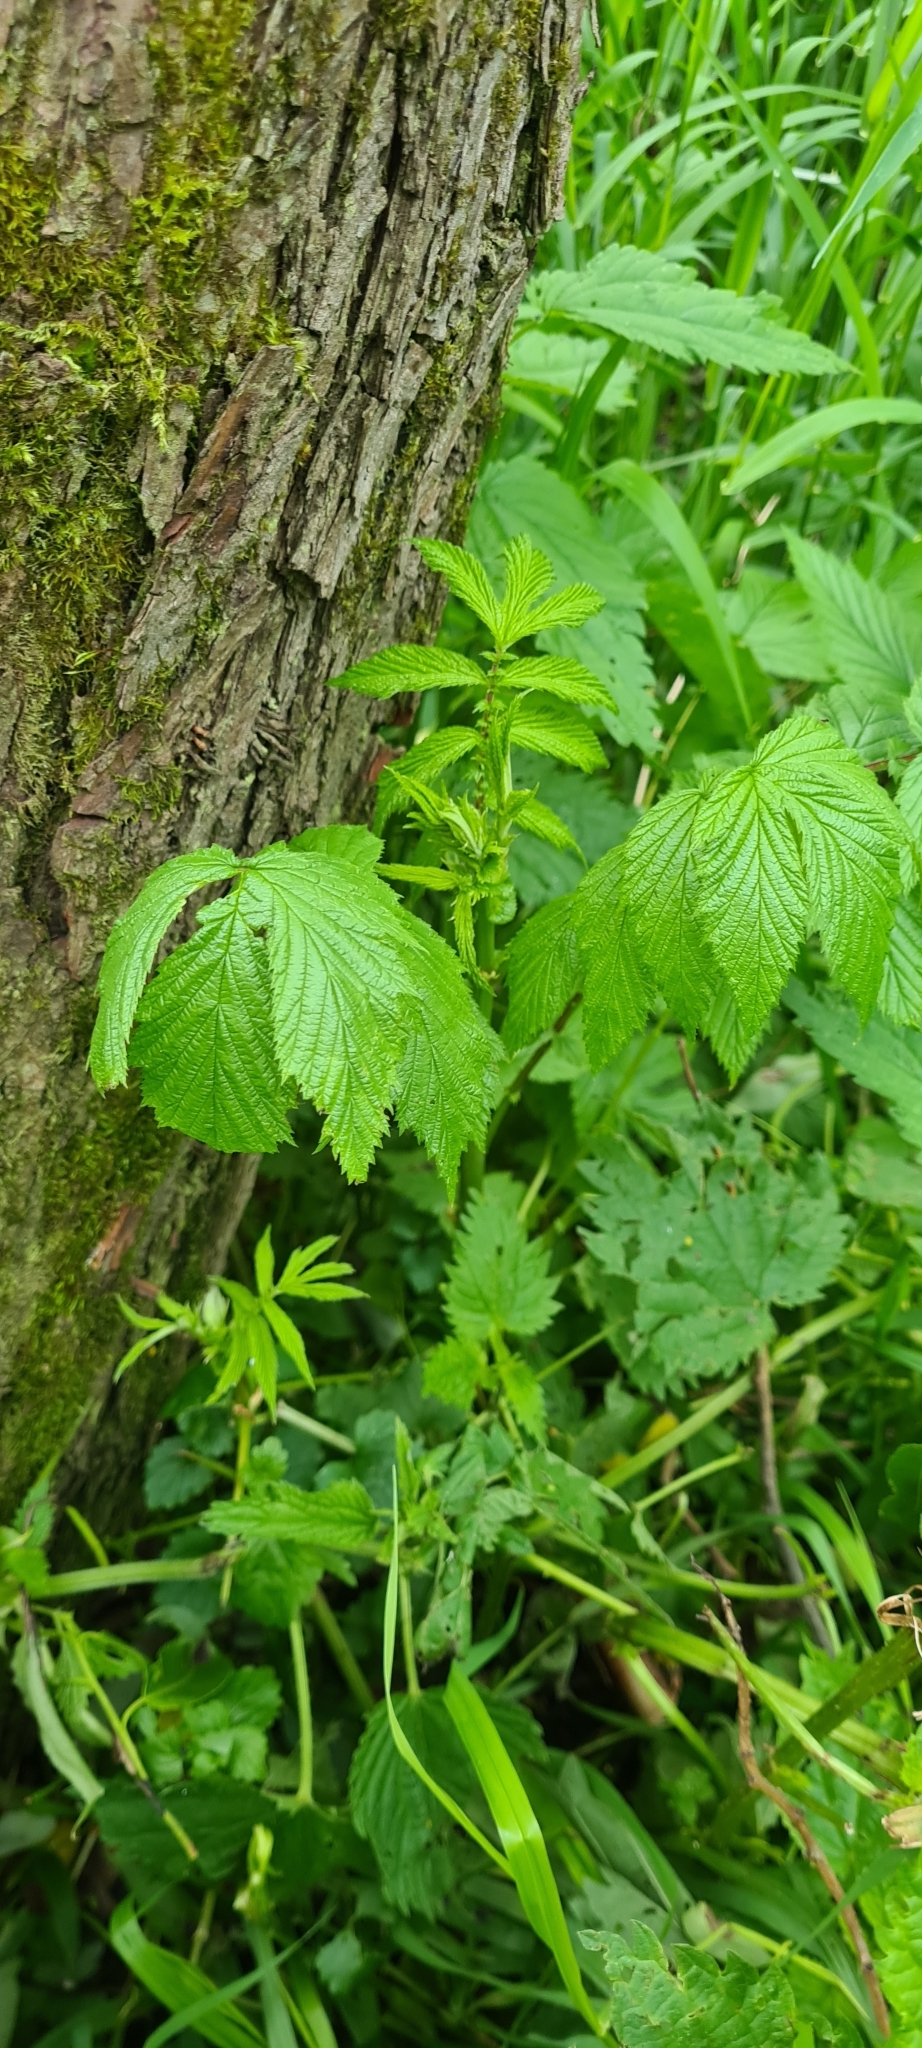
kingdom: Plantae
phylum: Tracheophyta
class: Magnoliopsida
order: Rosales
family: Rosaceae
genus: Filipendula
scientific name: Filipendula ulmaria
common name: Meadowsweet
